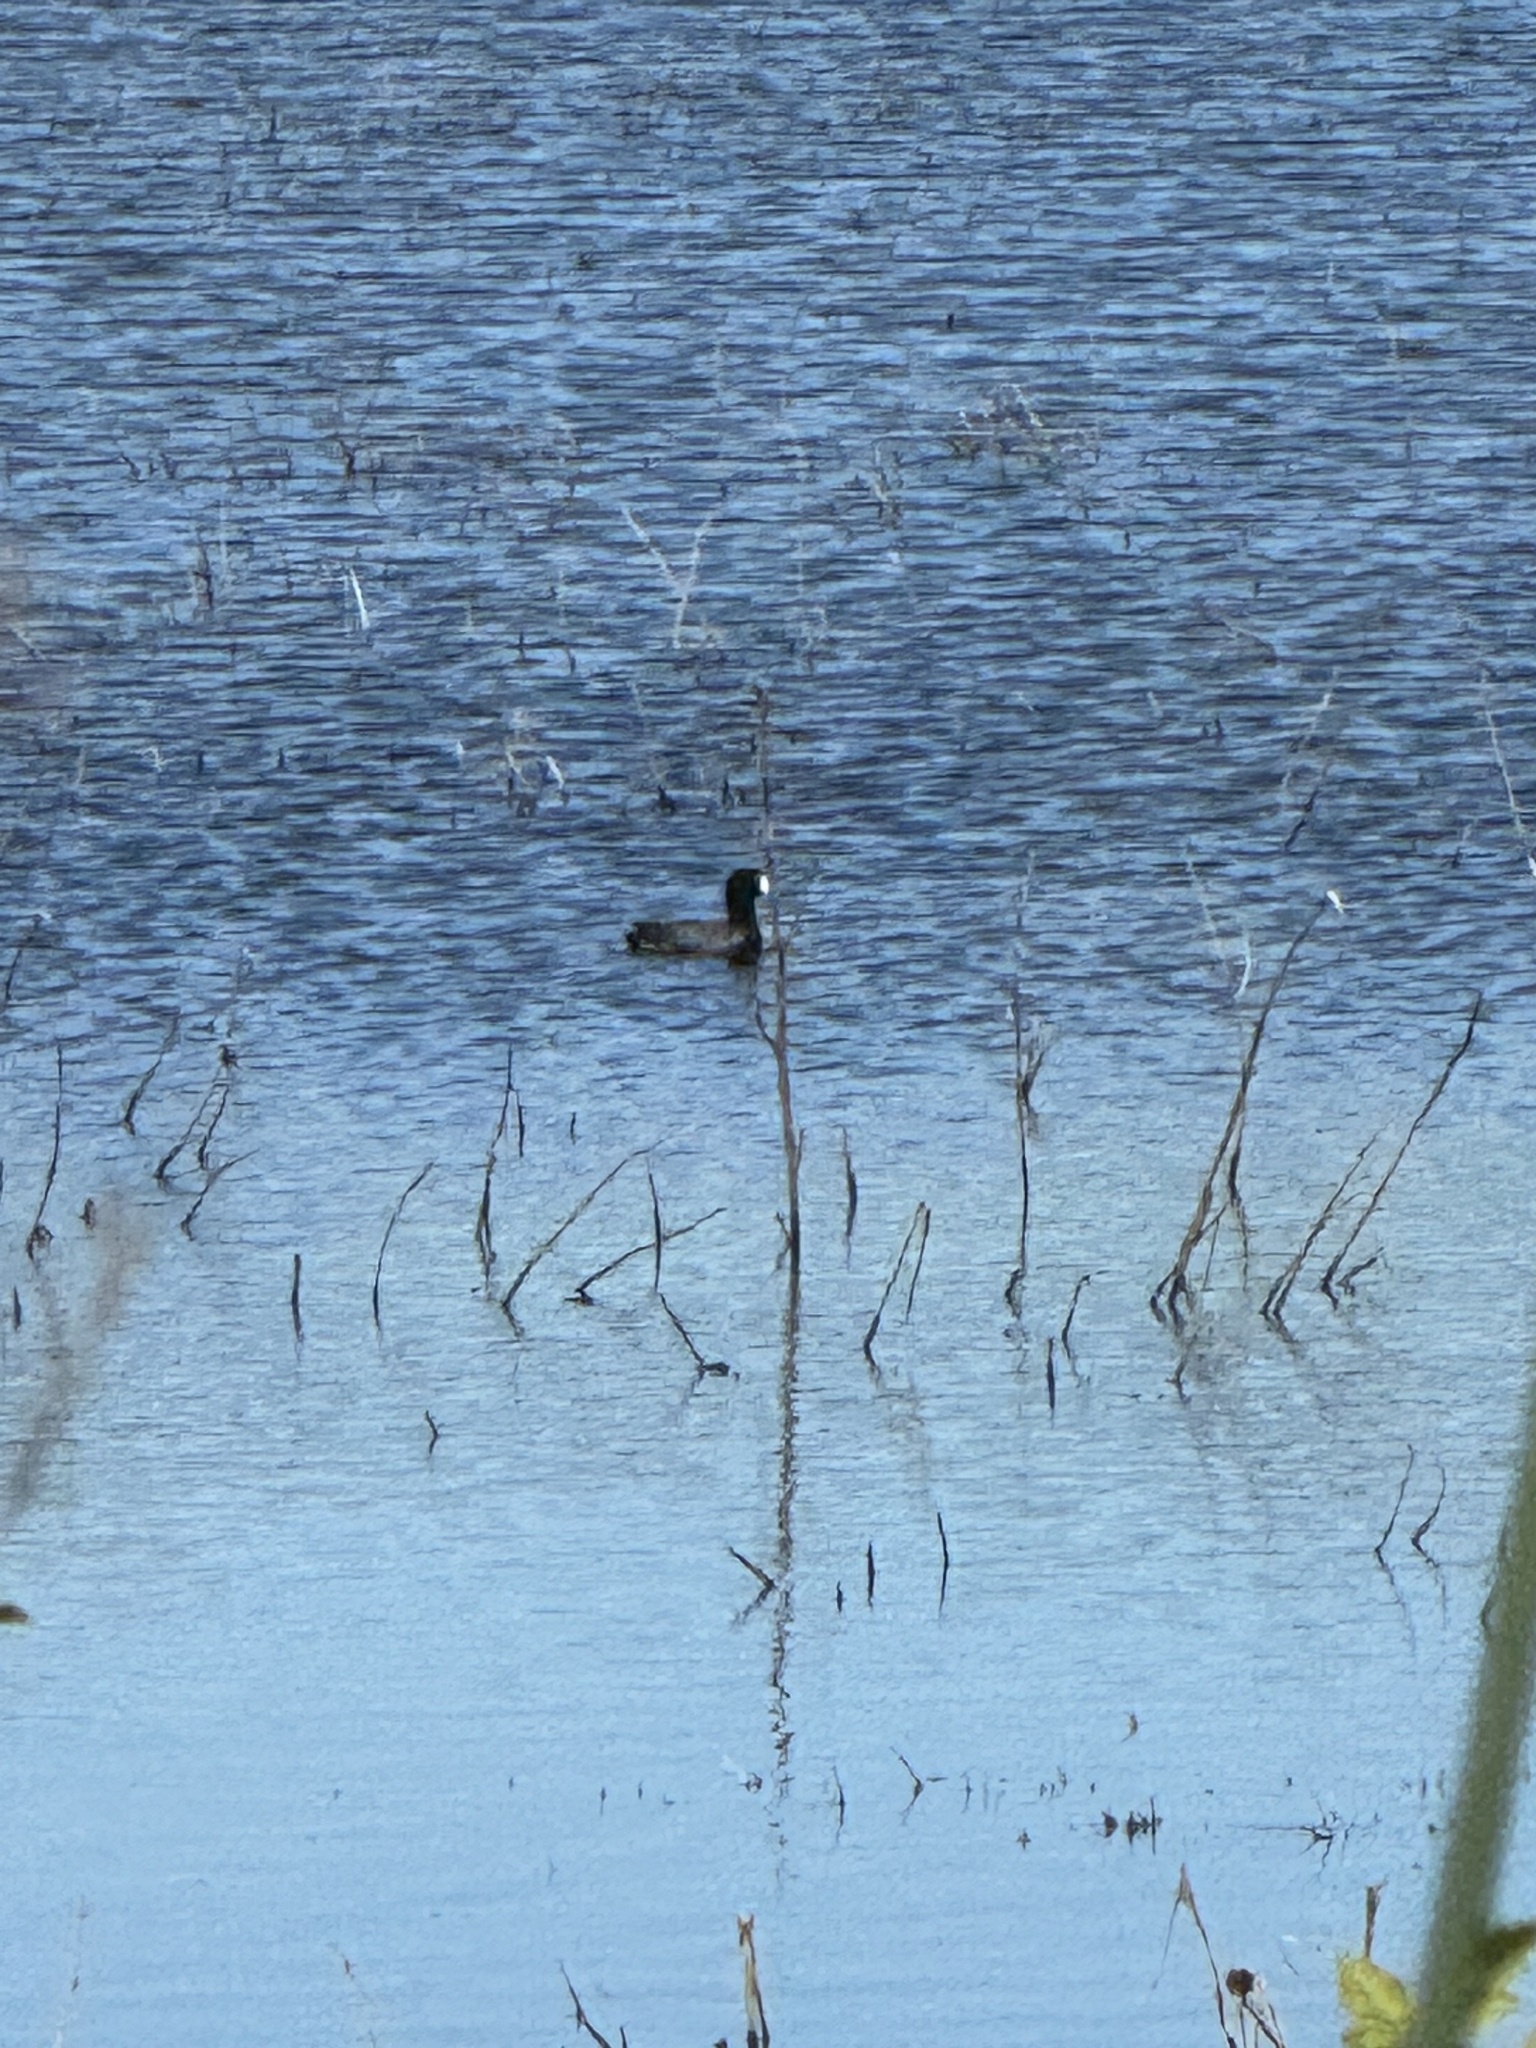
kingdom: Animalia
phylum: Chordata
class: Aves
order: Gruiformes
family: Rallidae
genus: Fulica
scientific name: Fulica americana
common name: American coot
